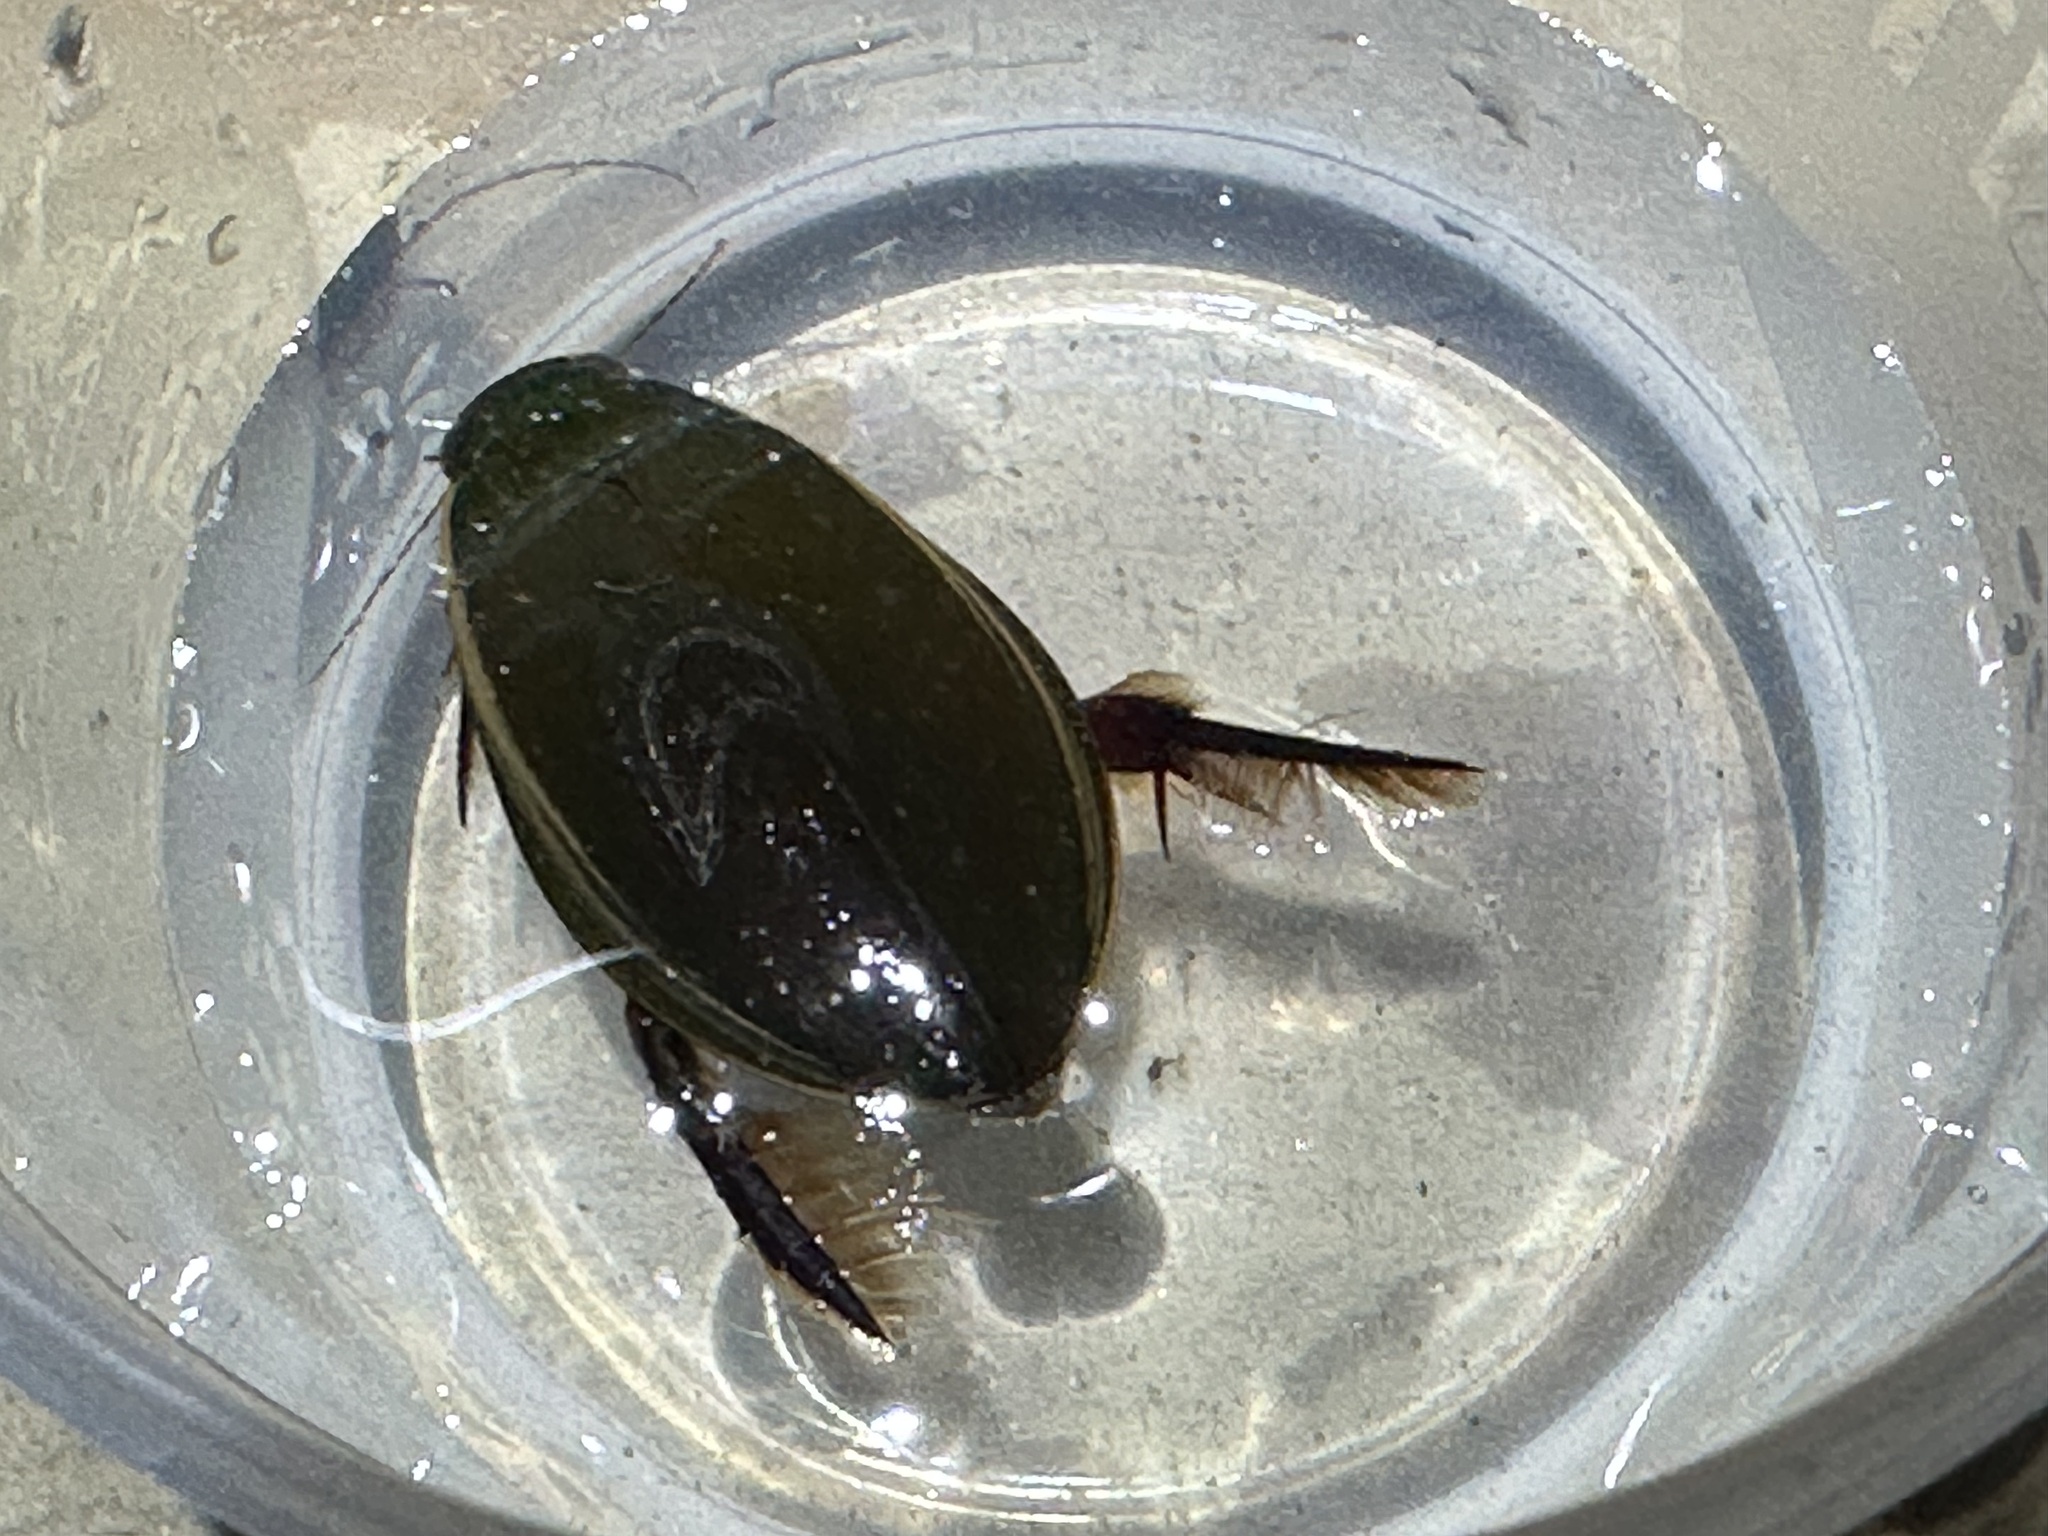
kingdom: Animalia
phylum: Arthropoda
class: Insecta
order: Coleoptera
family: Dytiscidae
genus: Cybister
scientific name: Cybister lateralimarginalis
